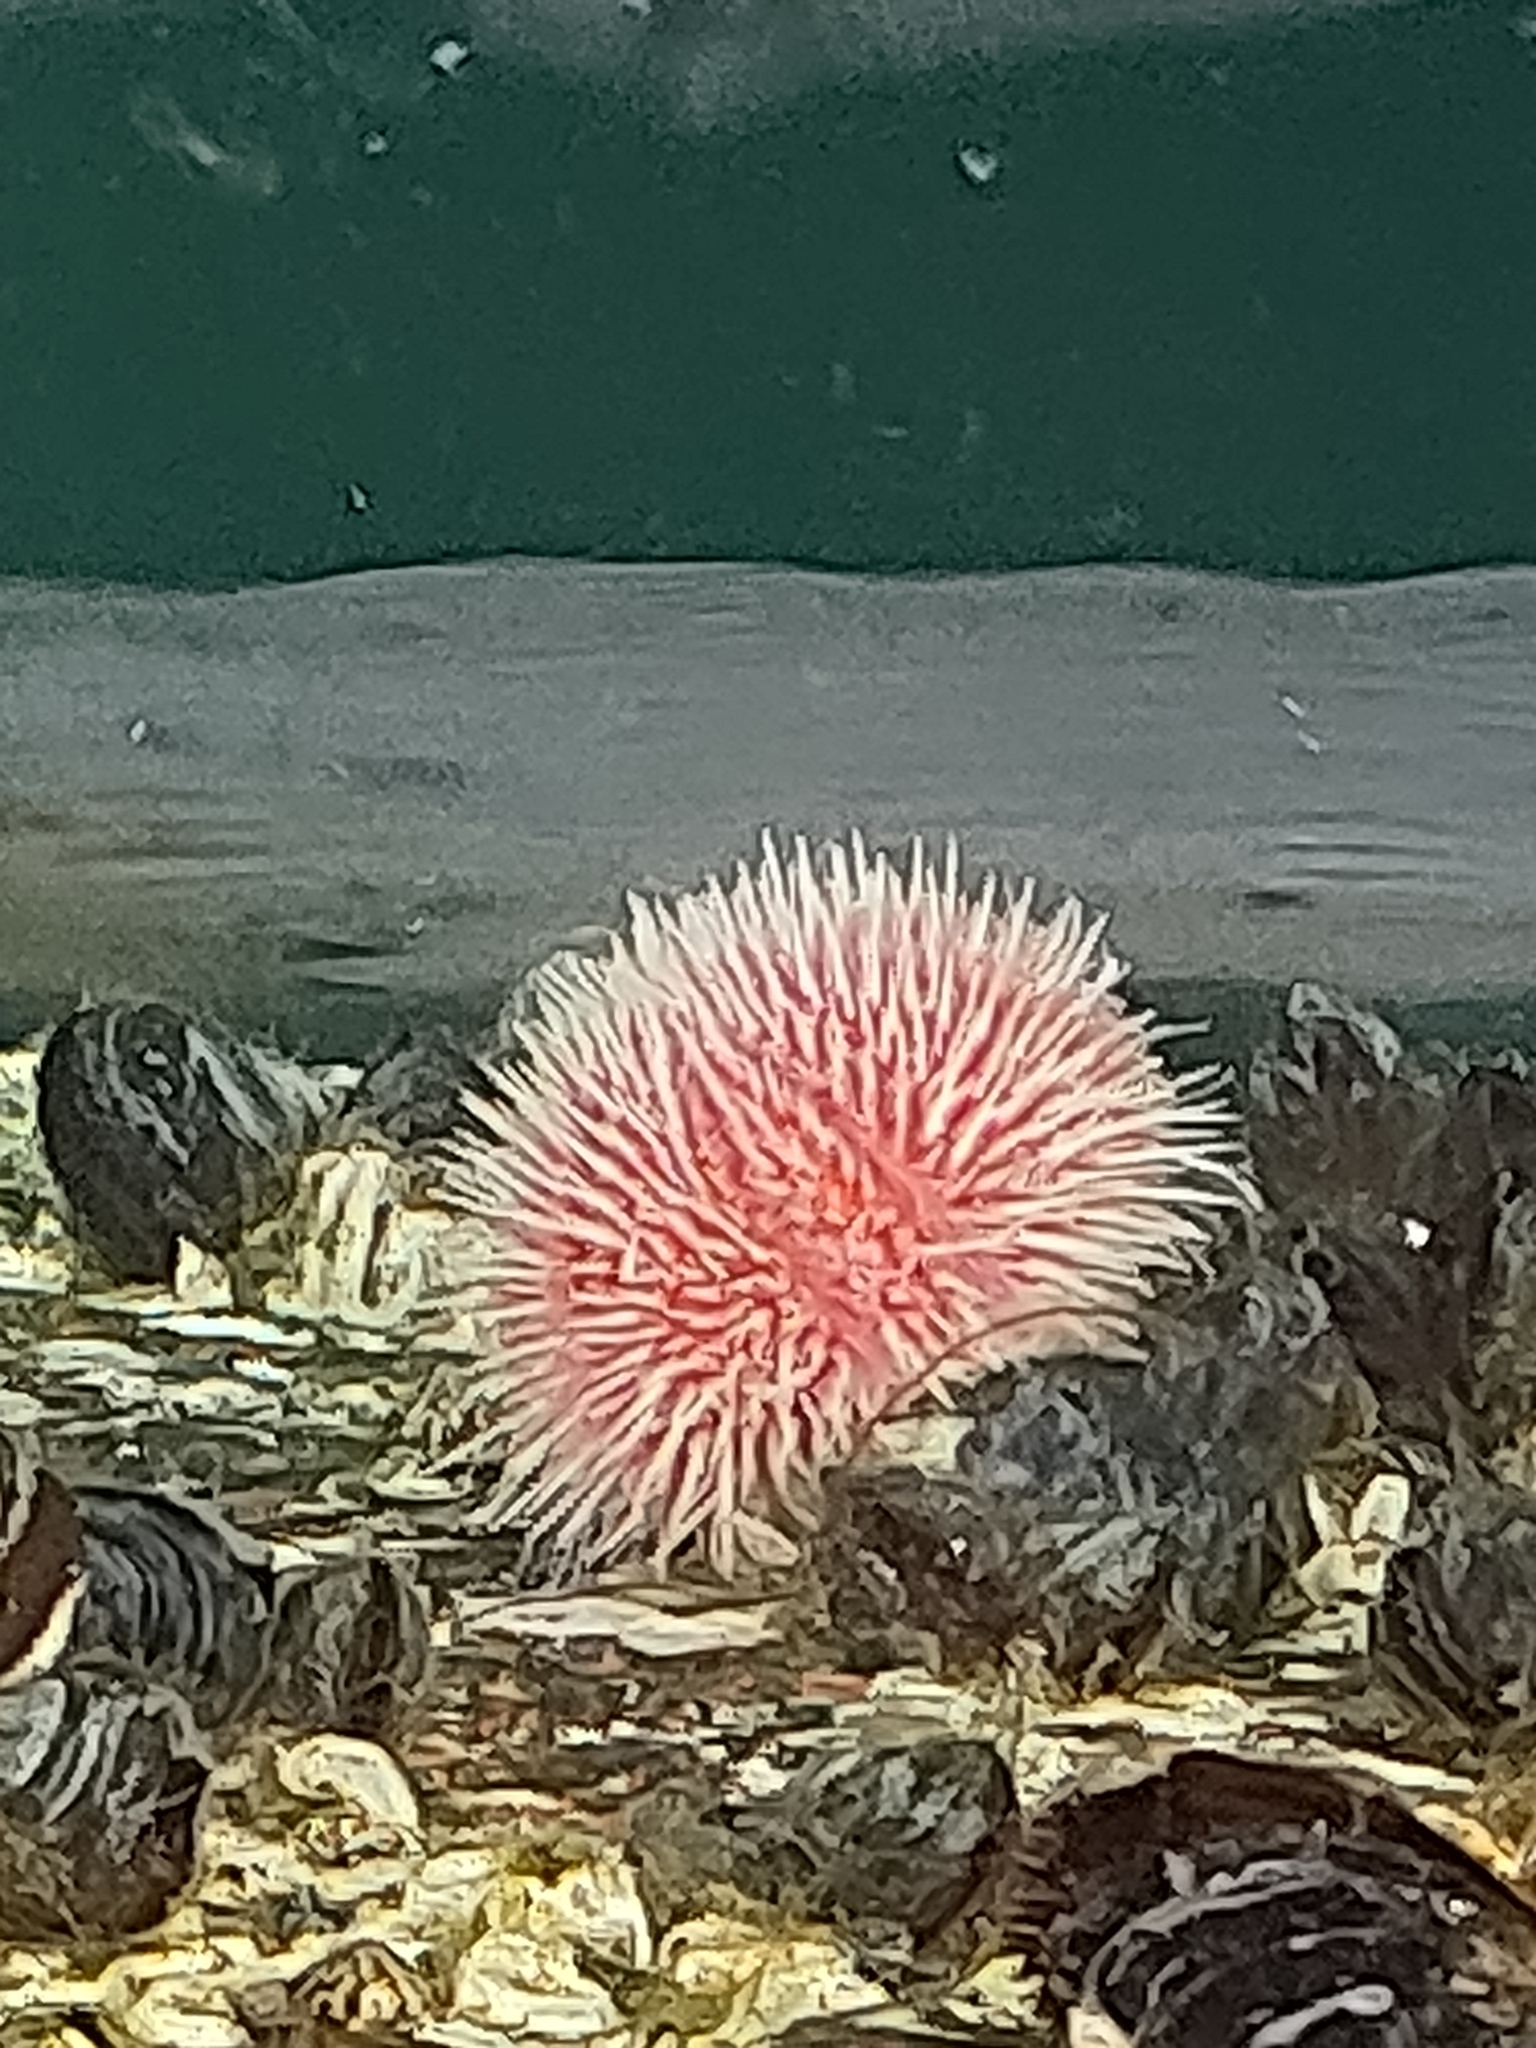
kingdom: Animalia
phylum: Echinodermata
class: Echinoidea
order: Camarodonta
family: Echinidae
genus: Echinus
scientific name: Echinus esculentus
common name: Edible sea urchin
